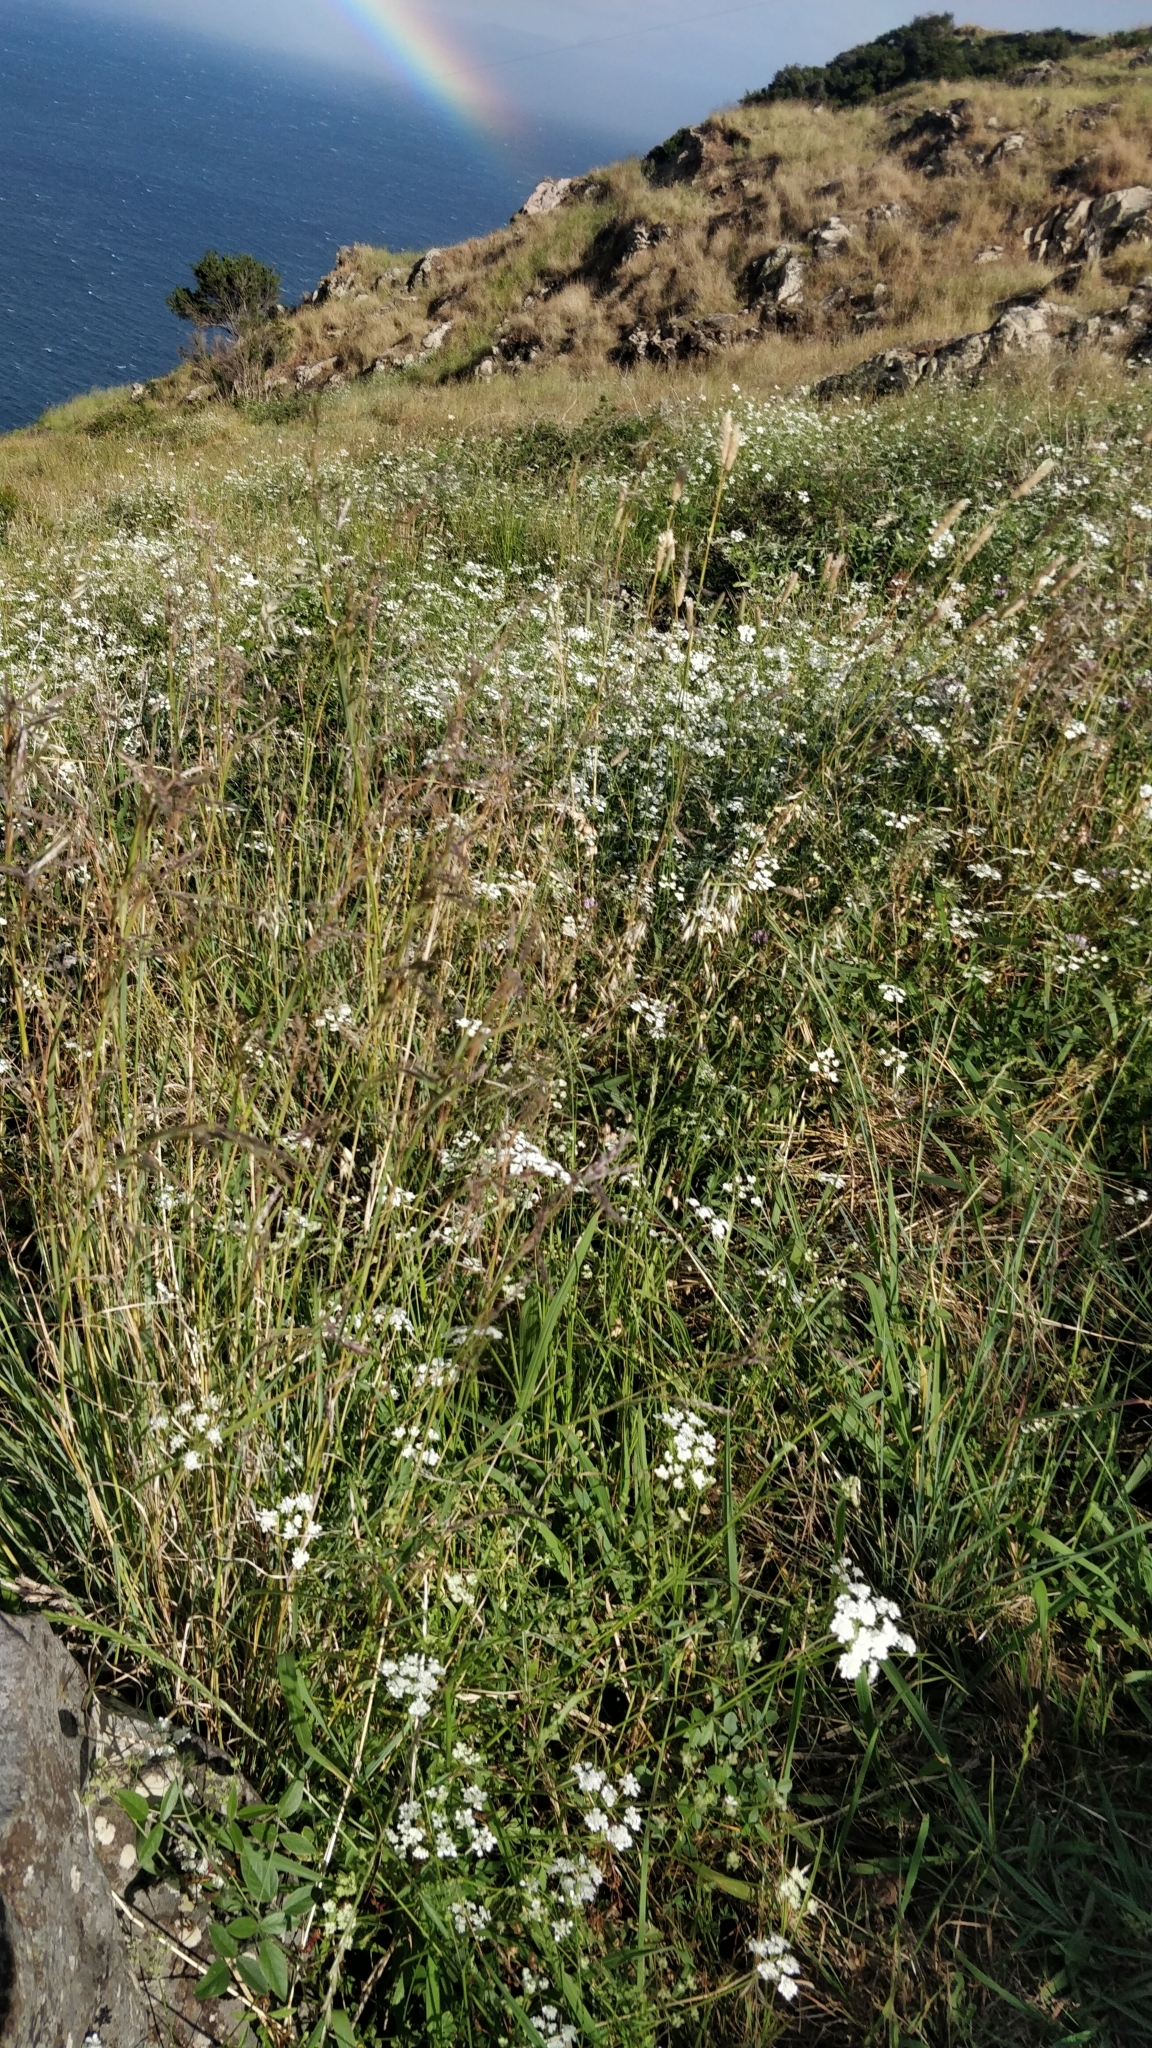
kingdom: Plantae
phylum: Tracheophyta
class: Magnoliopsida
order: Apiales
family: Apiaceae
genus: Torilis
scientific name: Torilis arvensis
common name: Spreading hedge-parsley
